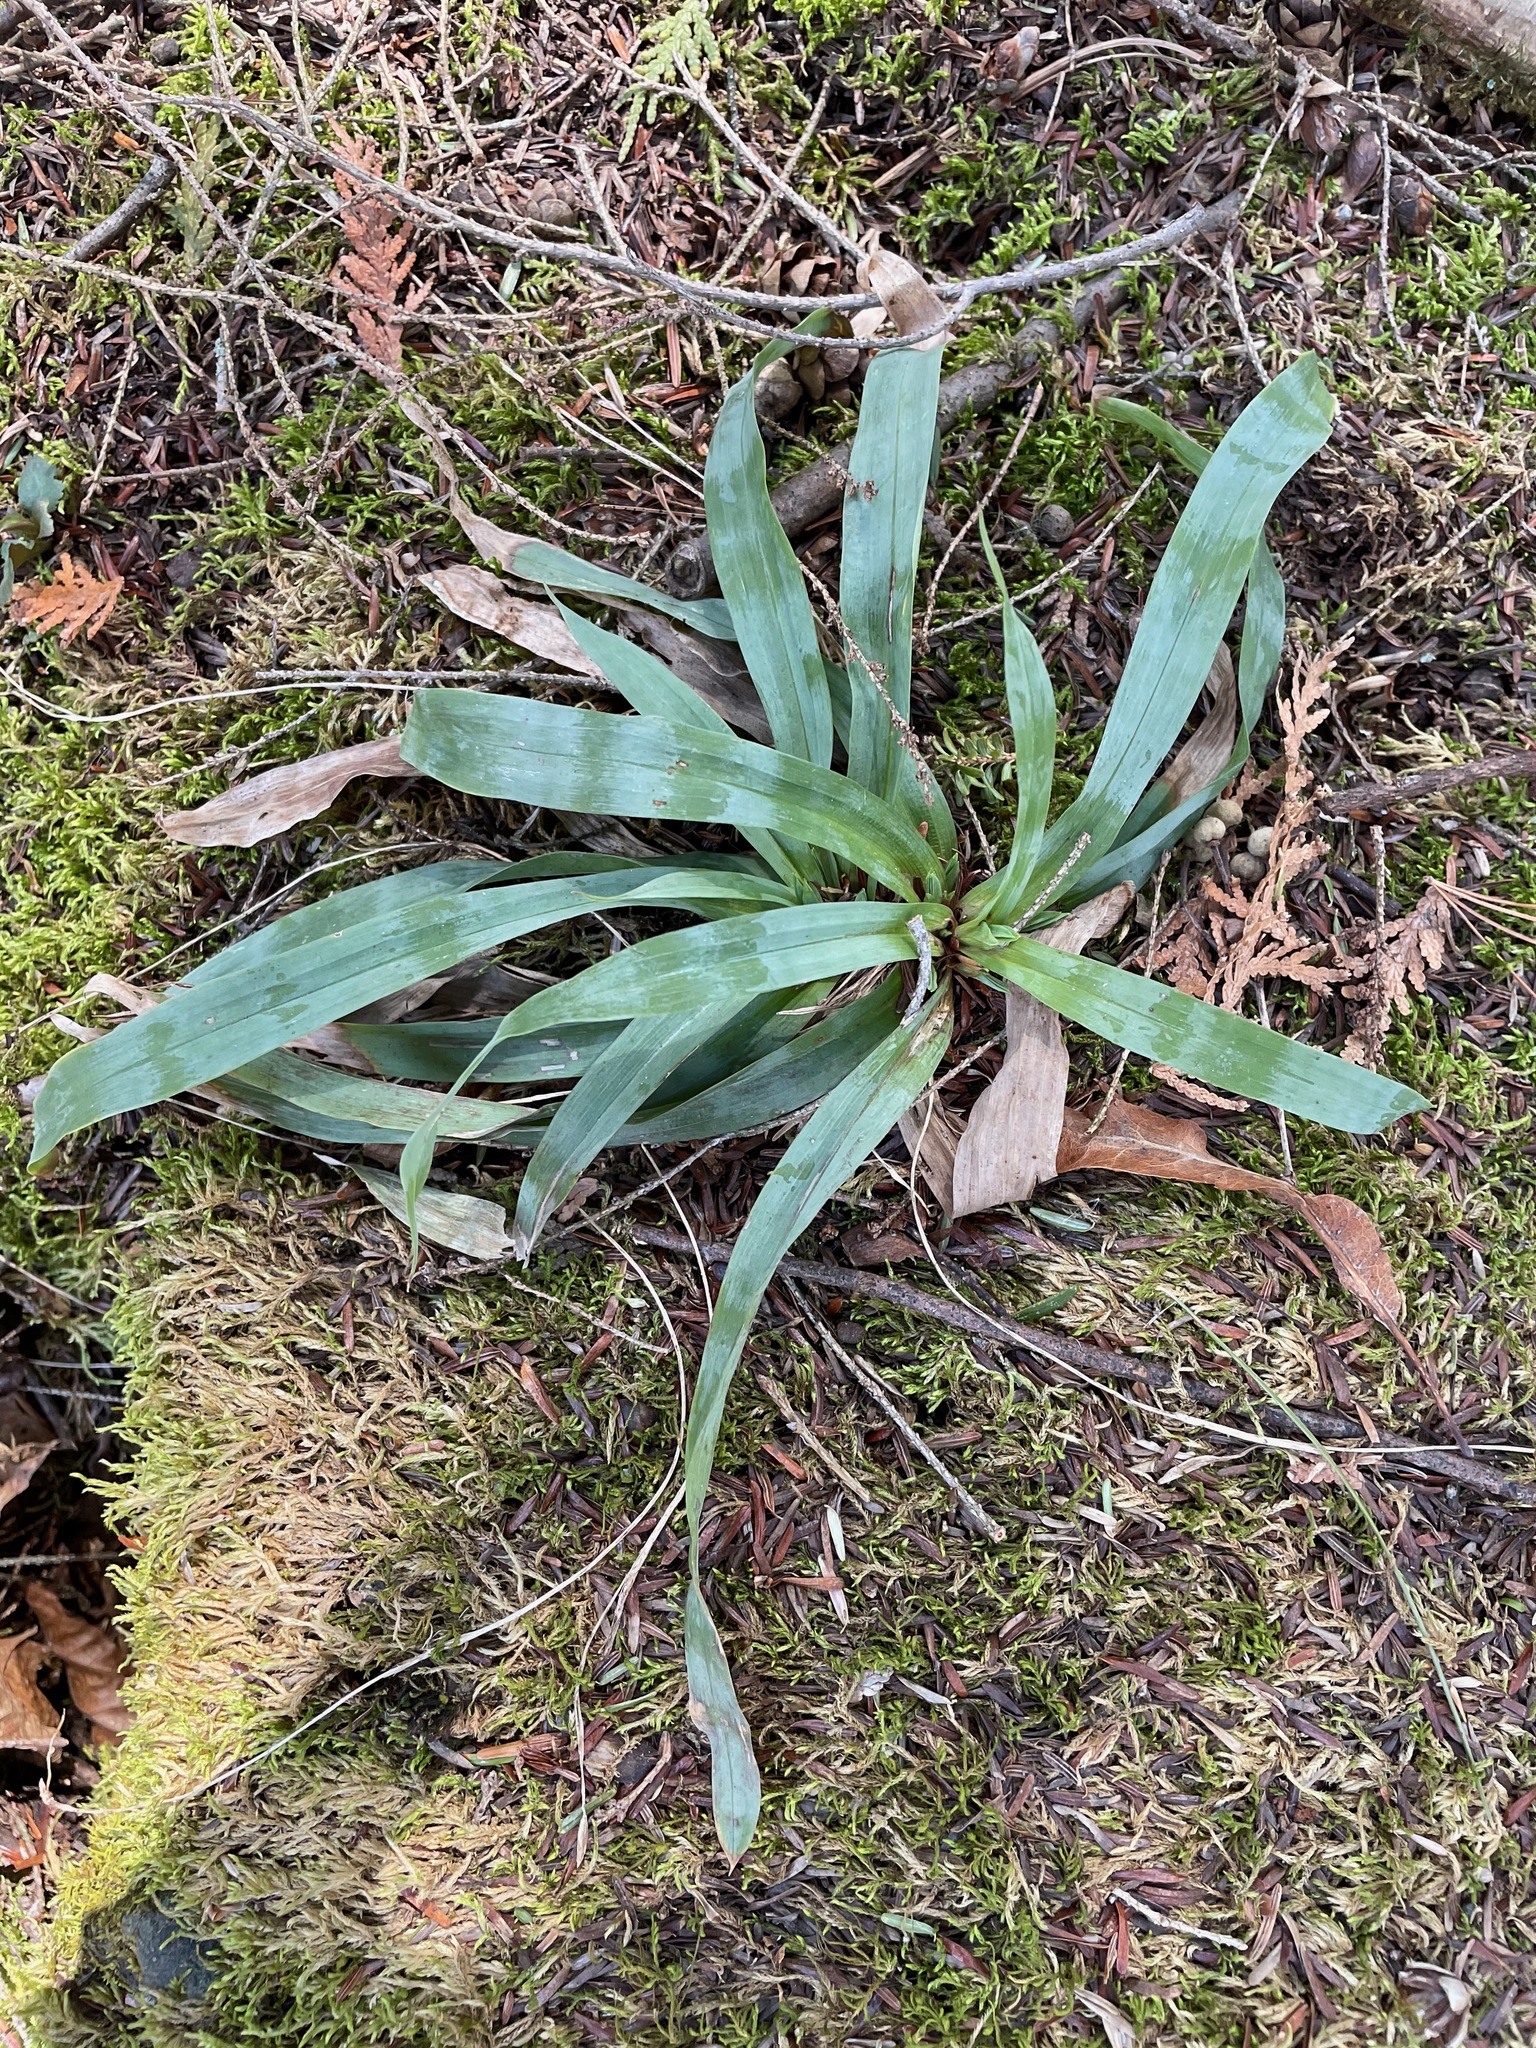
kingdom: Plantae
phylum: Tracheophyta
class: Liliopsida
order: Poales
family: Cyperaceae
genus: Carex
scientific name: Carex platyphylla
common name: Broad-leaved sedge
